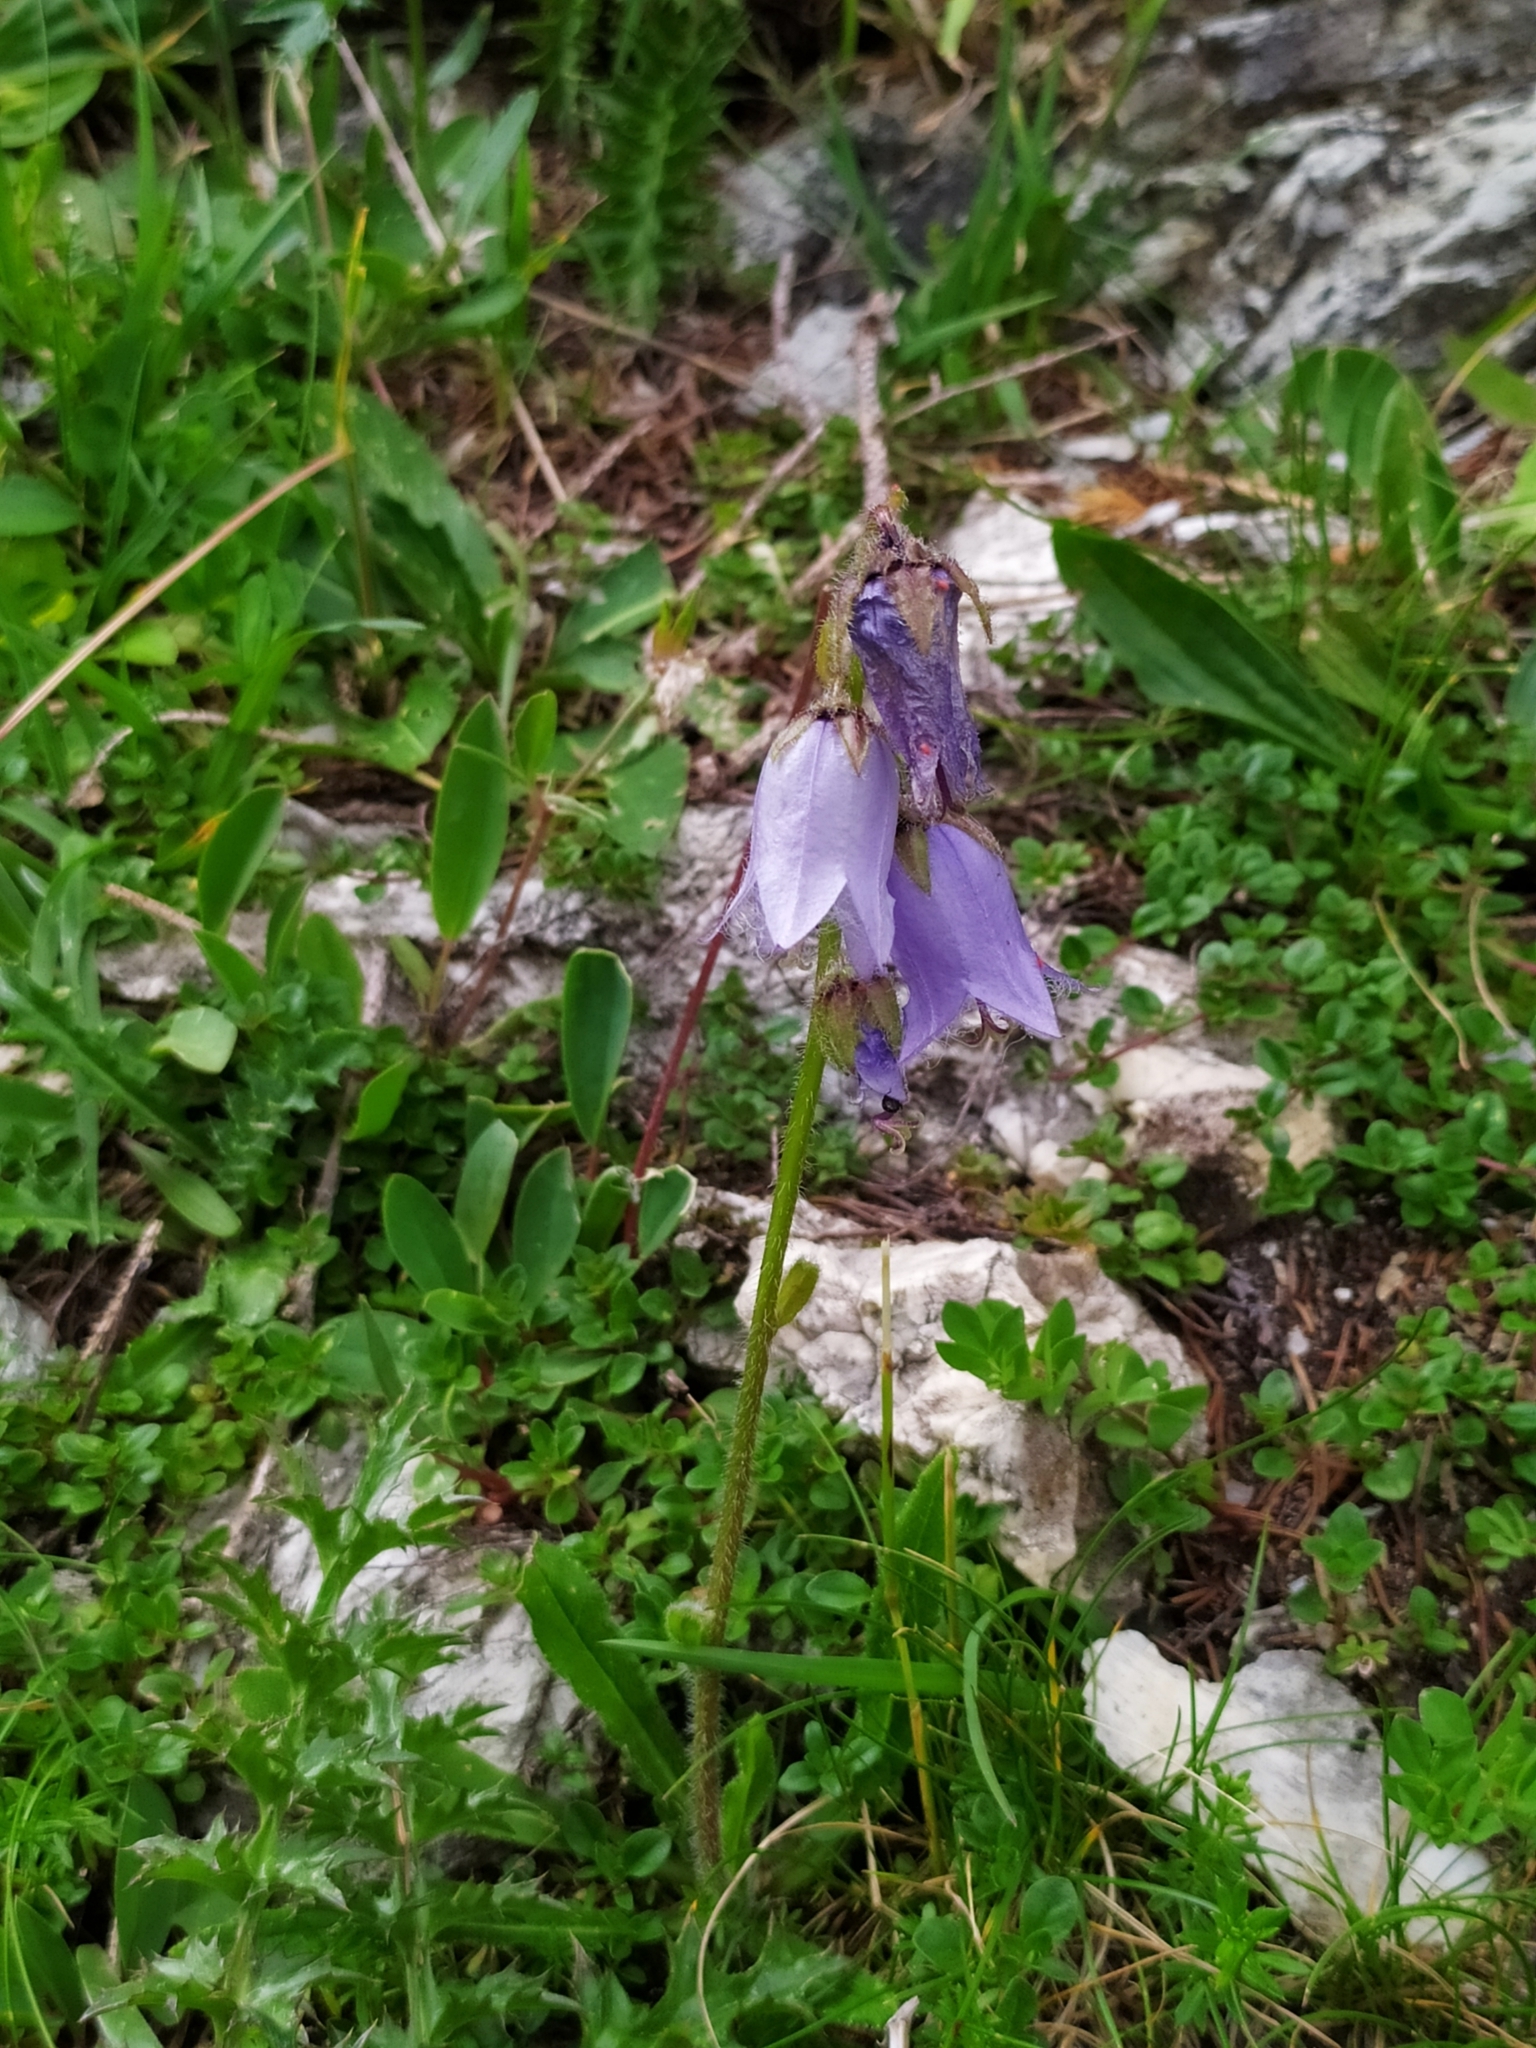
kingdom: Plantae
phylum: Tracheophyta
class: Magnoliopsida
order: Asterales
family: Campanulaceae
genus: Campanula
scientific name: Campanula barbata
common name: Bearded bellflower
